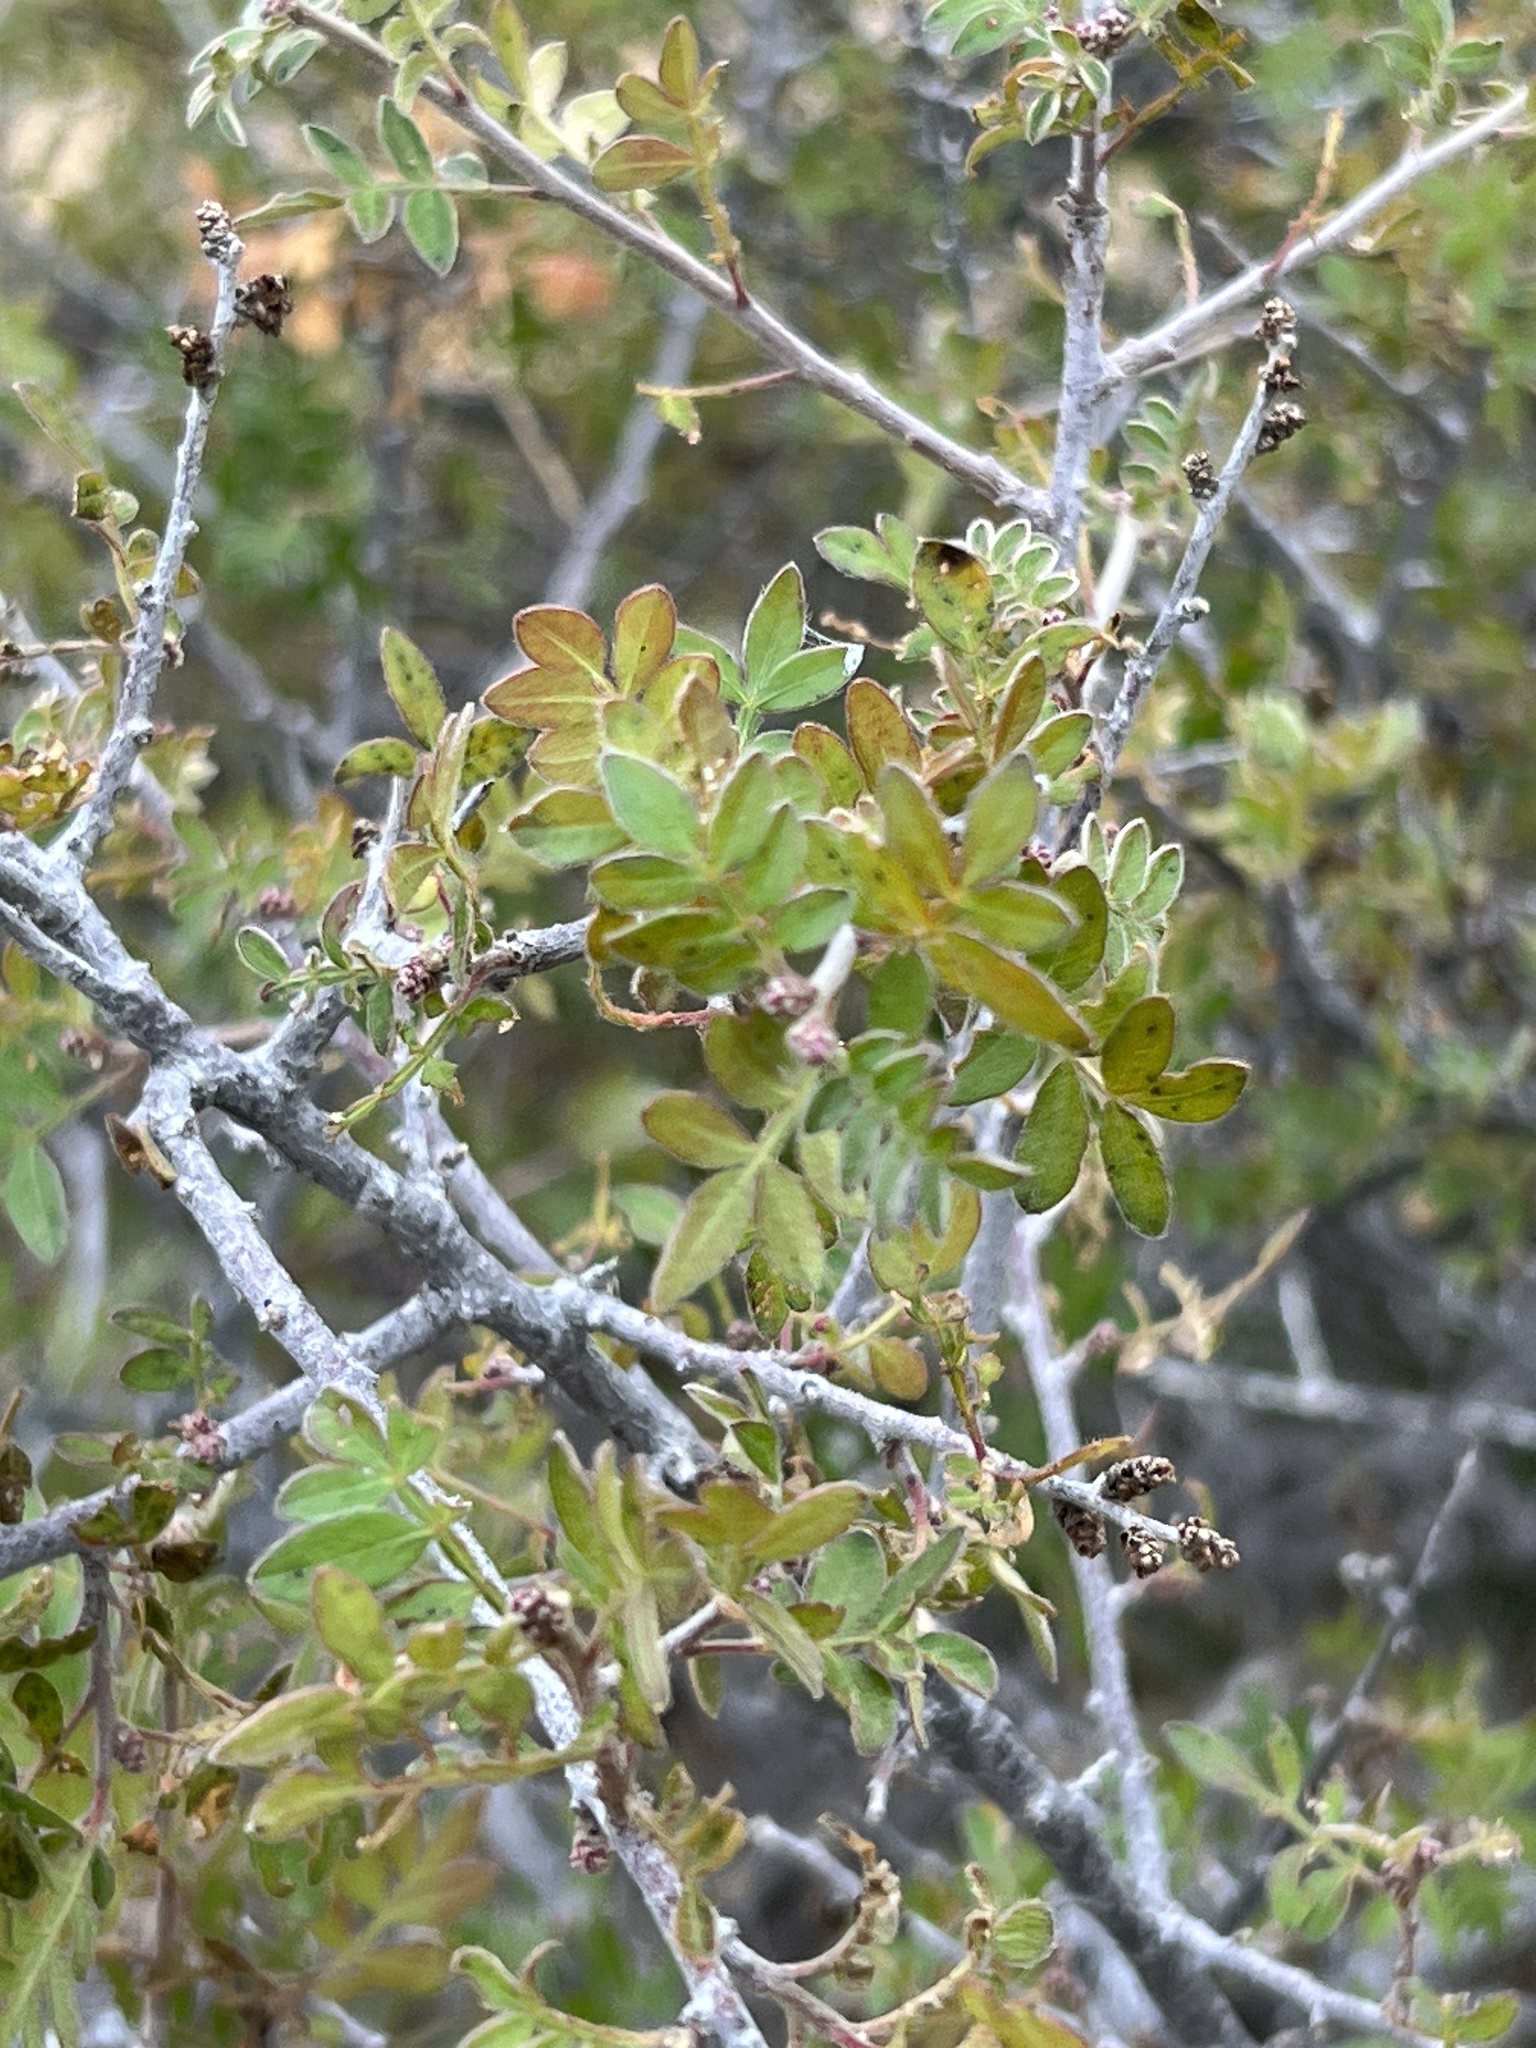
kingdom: Plantae
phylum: Tracheophyta
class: Magnoliopsida
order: Sapindales
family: Anacardiaceae
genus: Rhus
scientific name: Rhus microphylla
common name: Desert sumac
